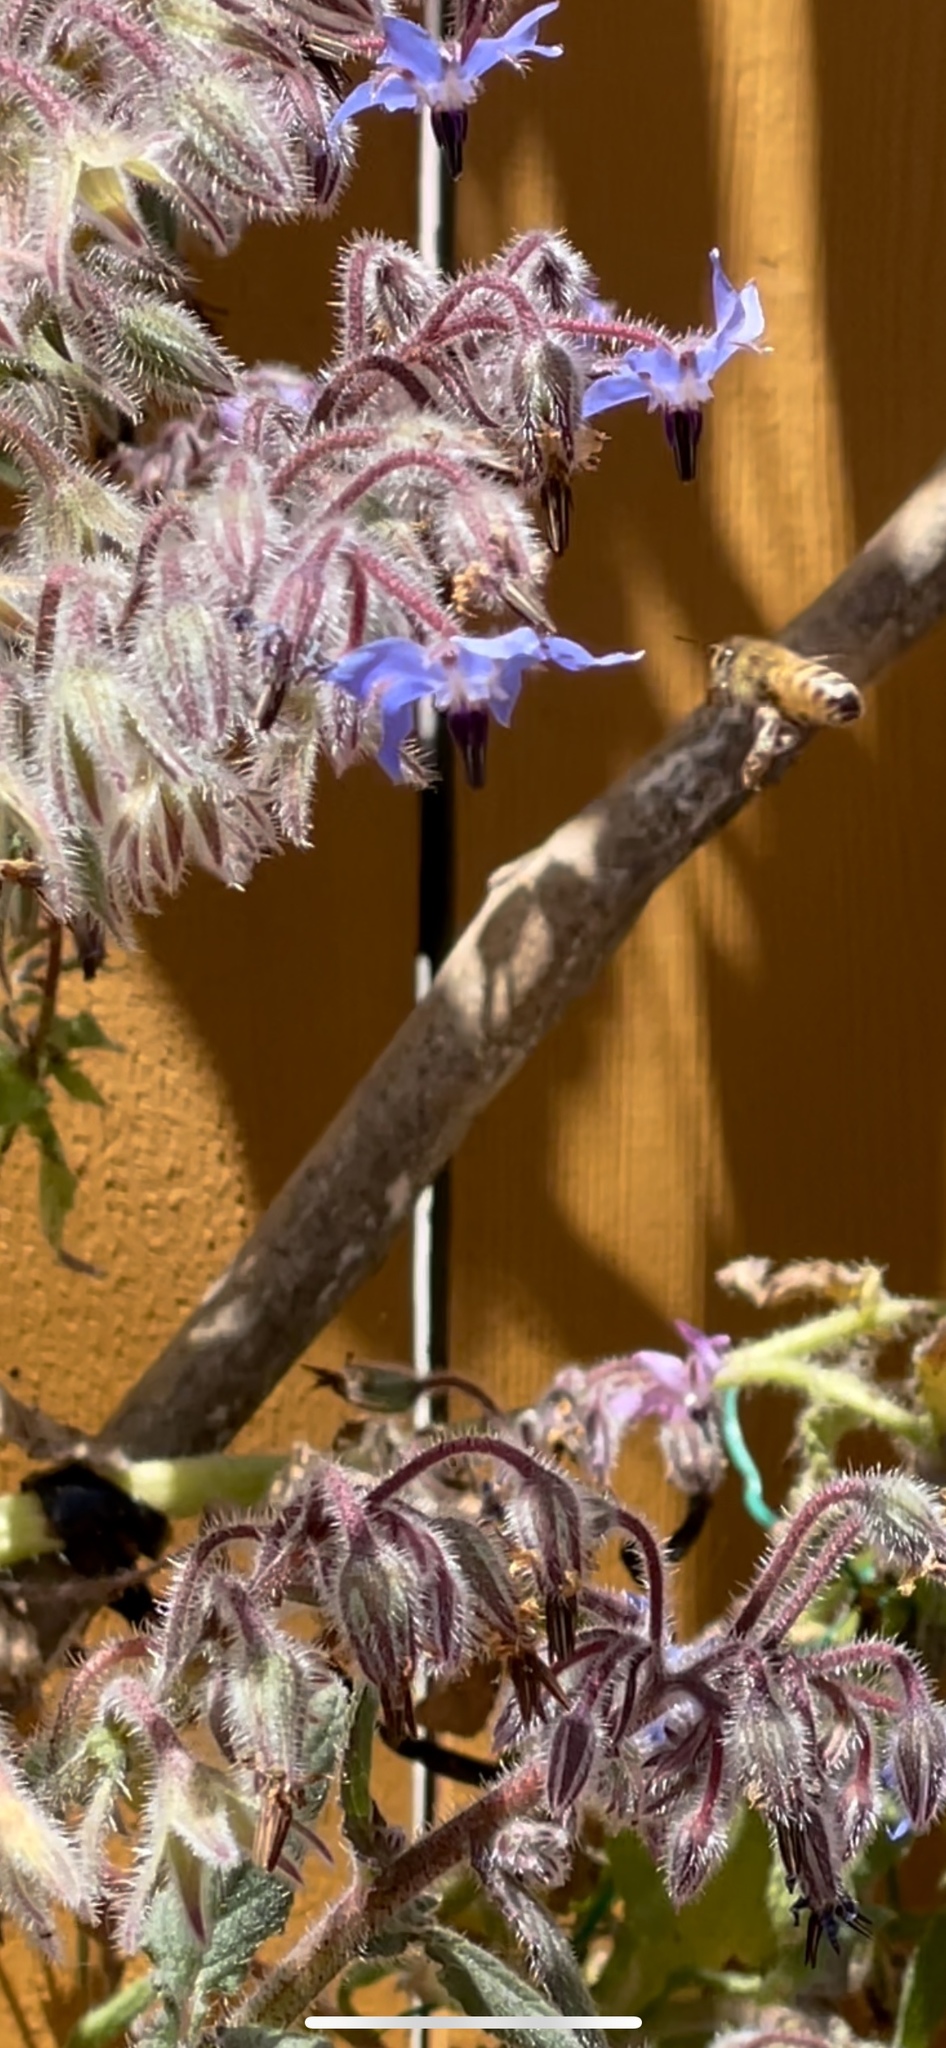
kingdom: Animalia
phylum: Arthropoda
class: Insecta
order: Hymenoptera
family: Apidae
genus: Apis
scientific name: Apis mellifera
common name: Honey bee
